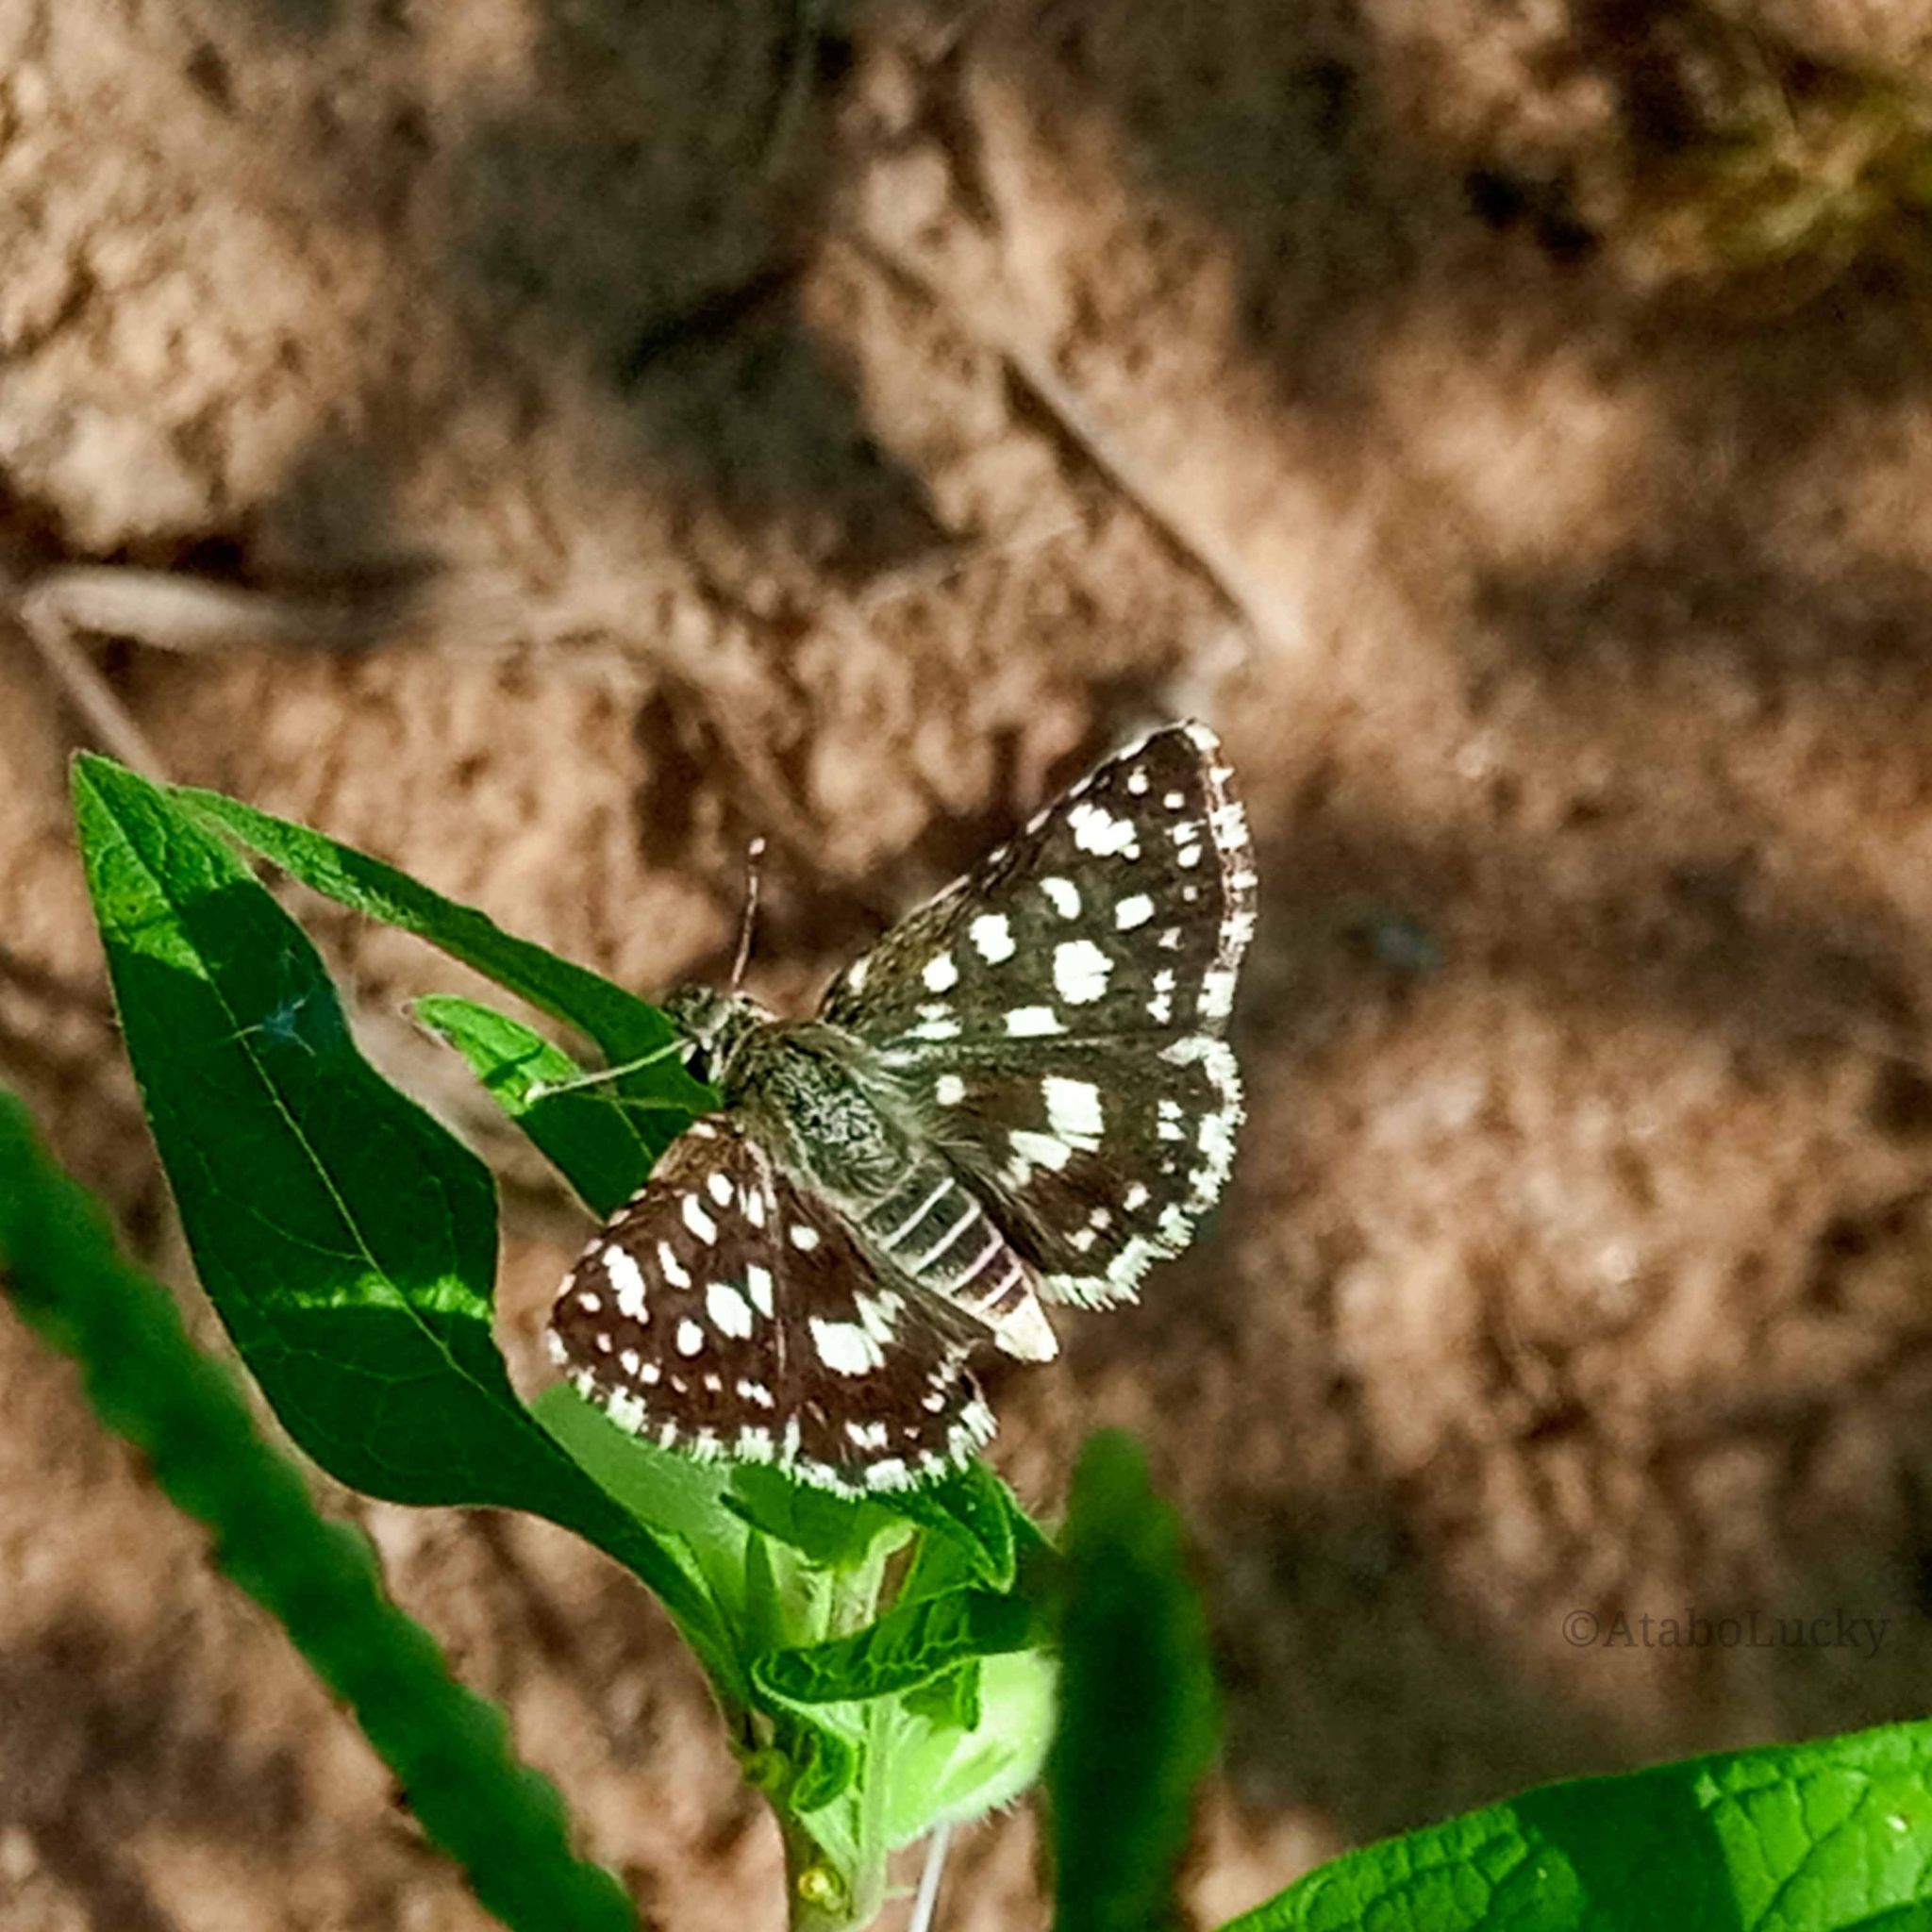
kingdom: Animalia
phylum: Arthropoda
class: Insecta
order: Lepidoptera
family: Hesperiidae
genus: Spialia
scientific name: Spialia spio
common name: Mountain sandman
